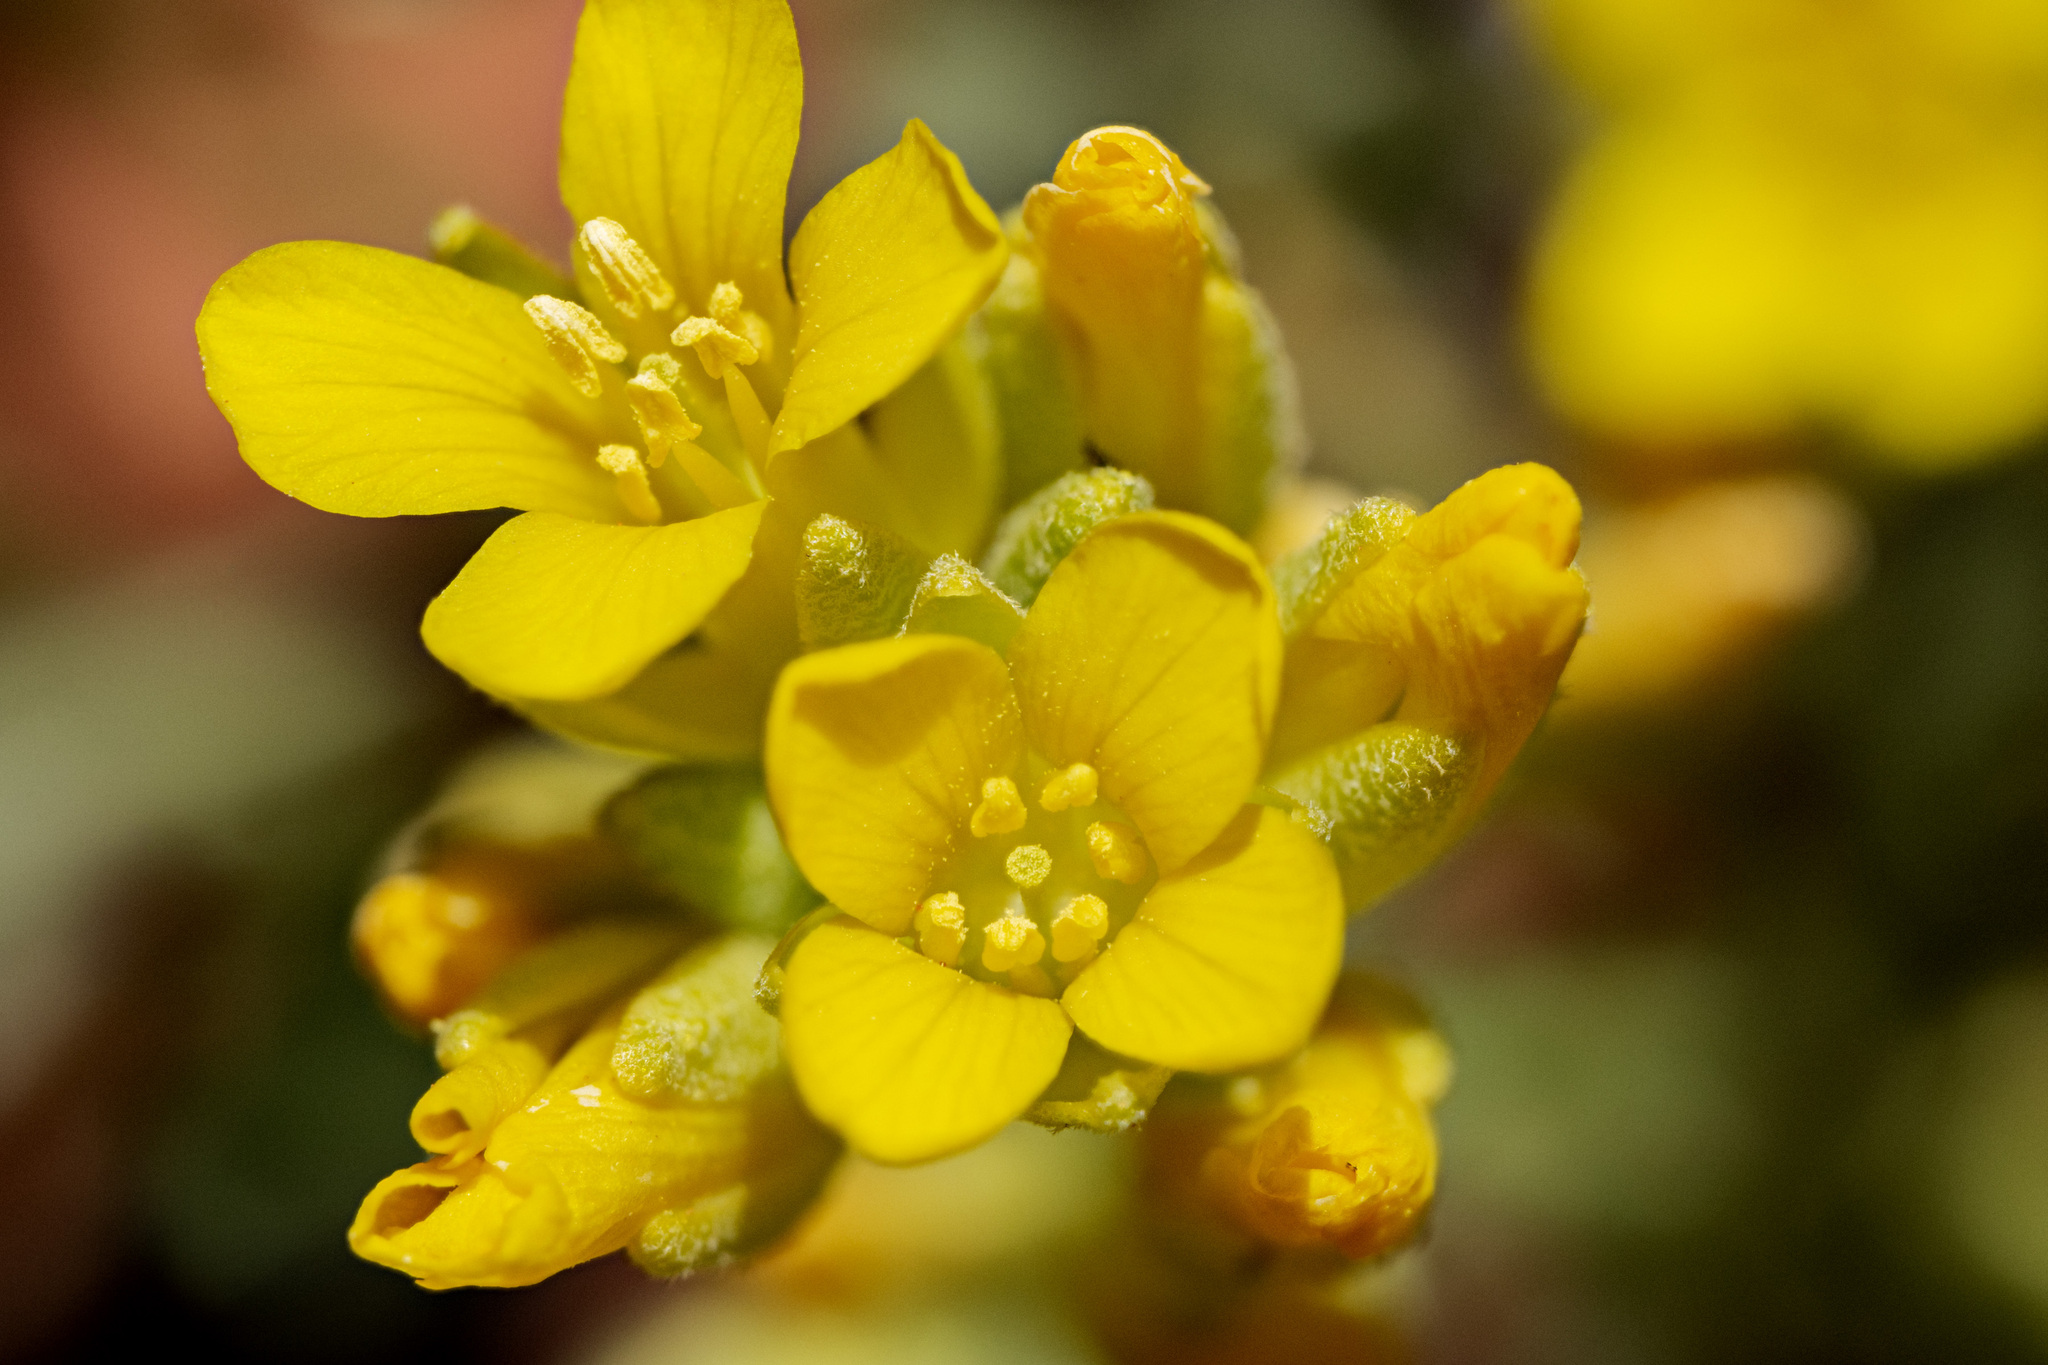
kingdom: Plantae
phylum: Tracheophyta
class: Magnoliopsida
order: Brassicales
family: Brassicaceae
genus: Physaria
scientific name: Physaria acutifolia
